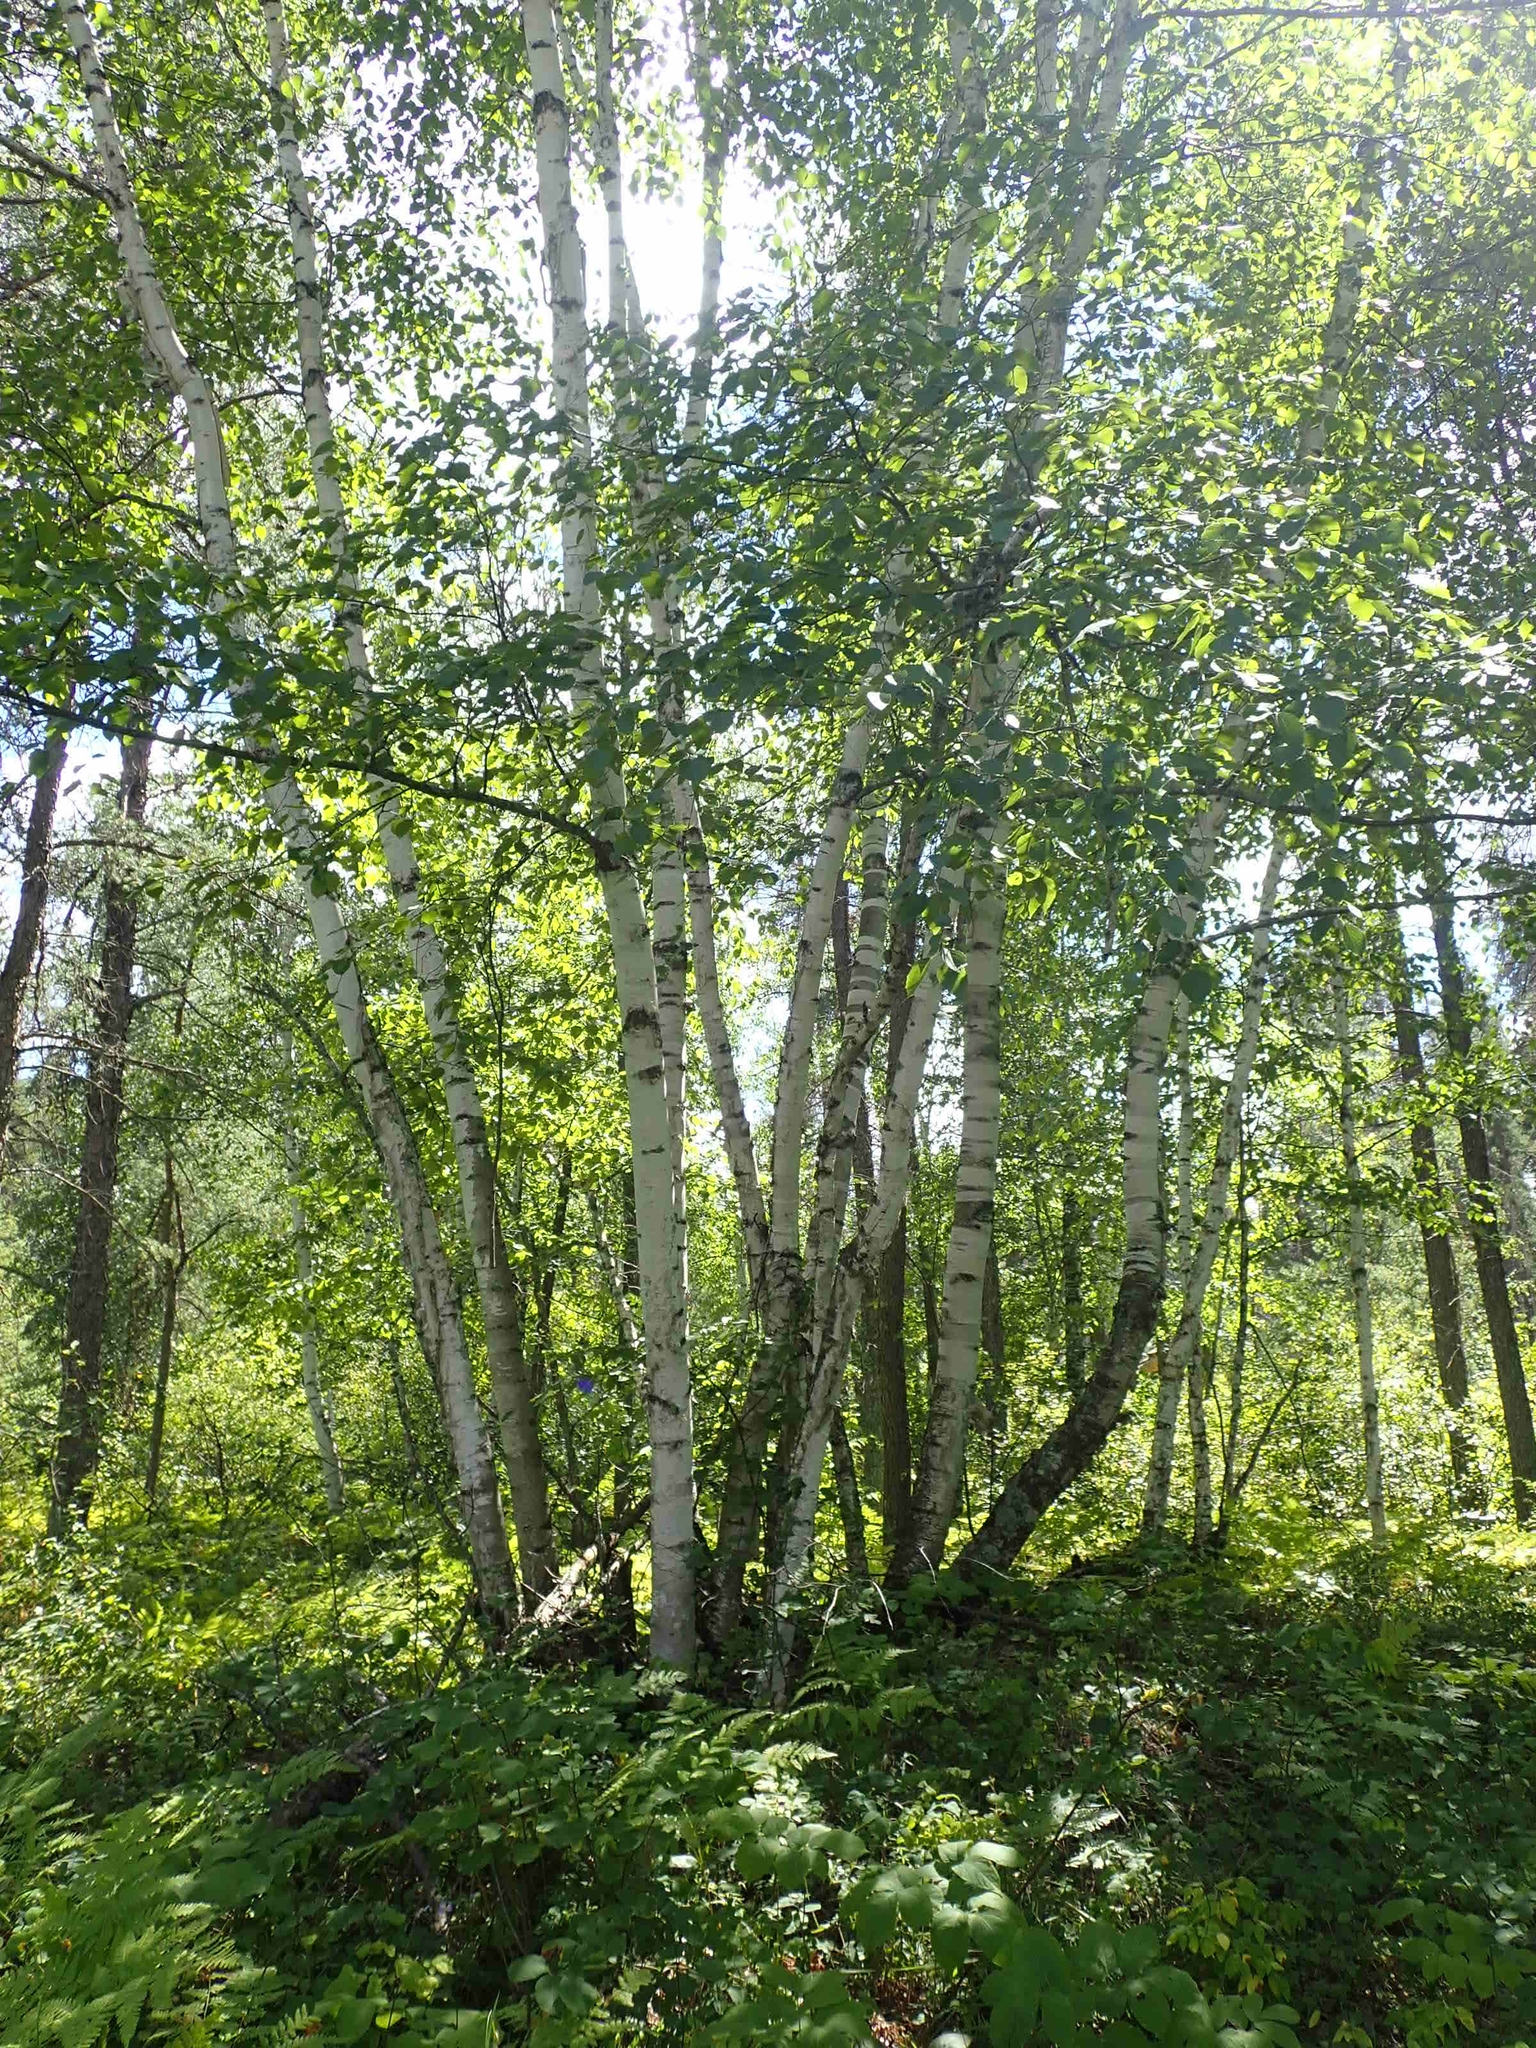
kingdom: Plantae
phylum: Tracheophyta
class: Magnoliopsida
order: Fagales
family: Betulaceae
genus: Betula
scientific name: Betula papyrifera
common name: Paper birch
